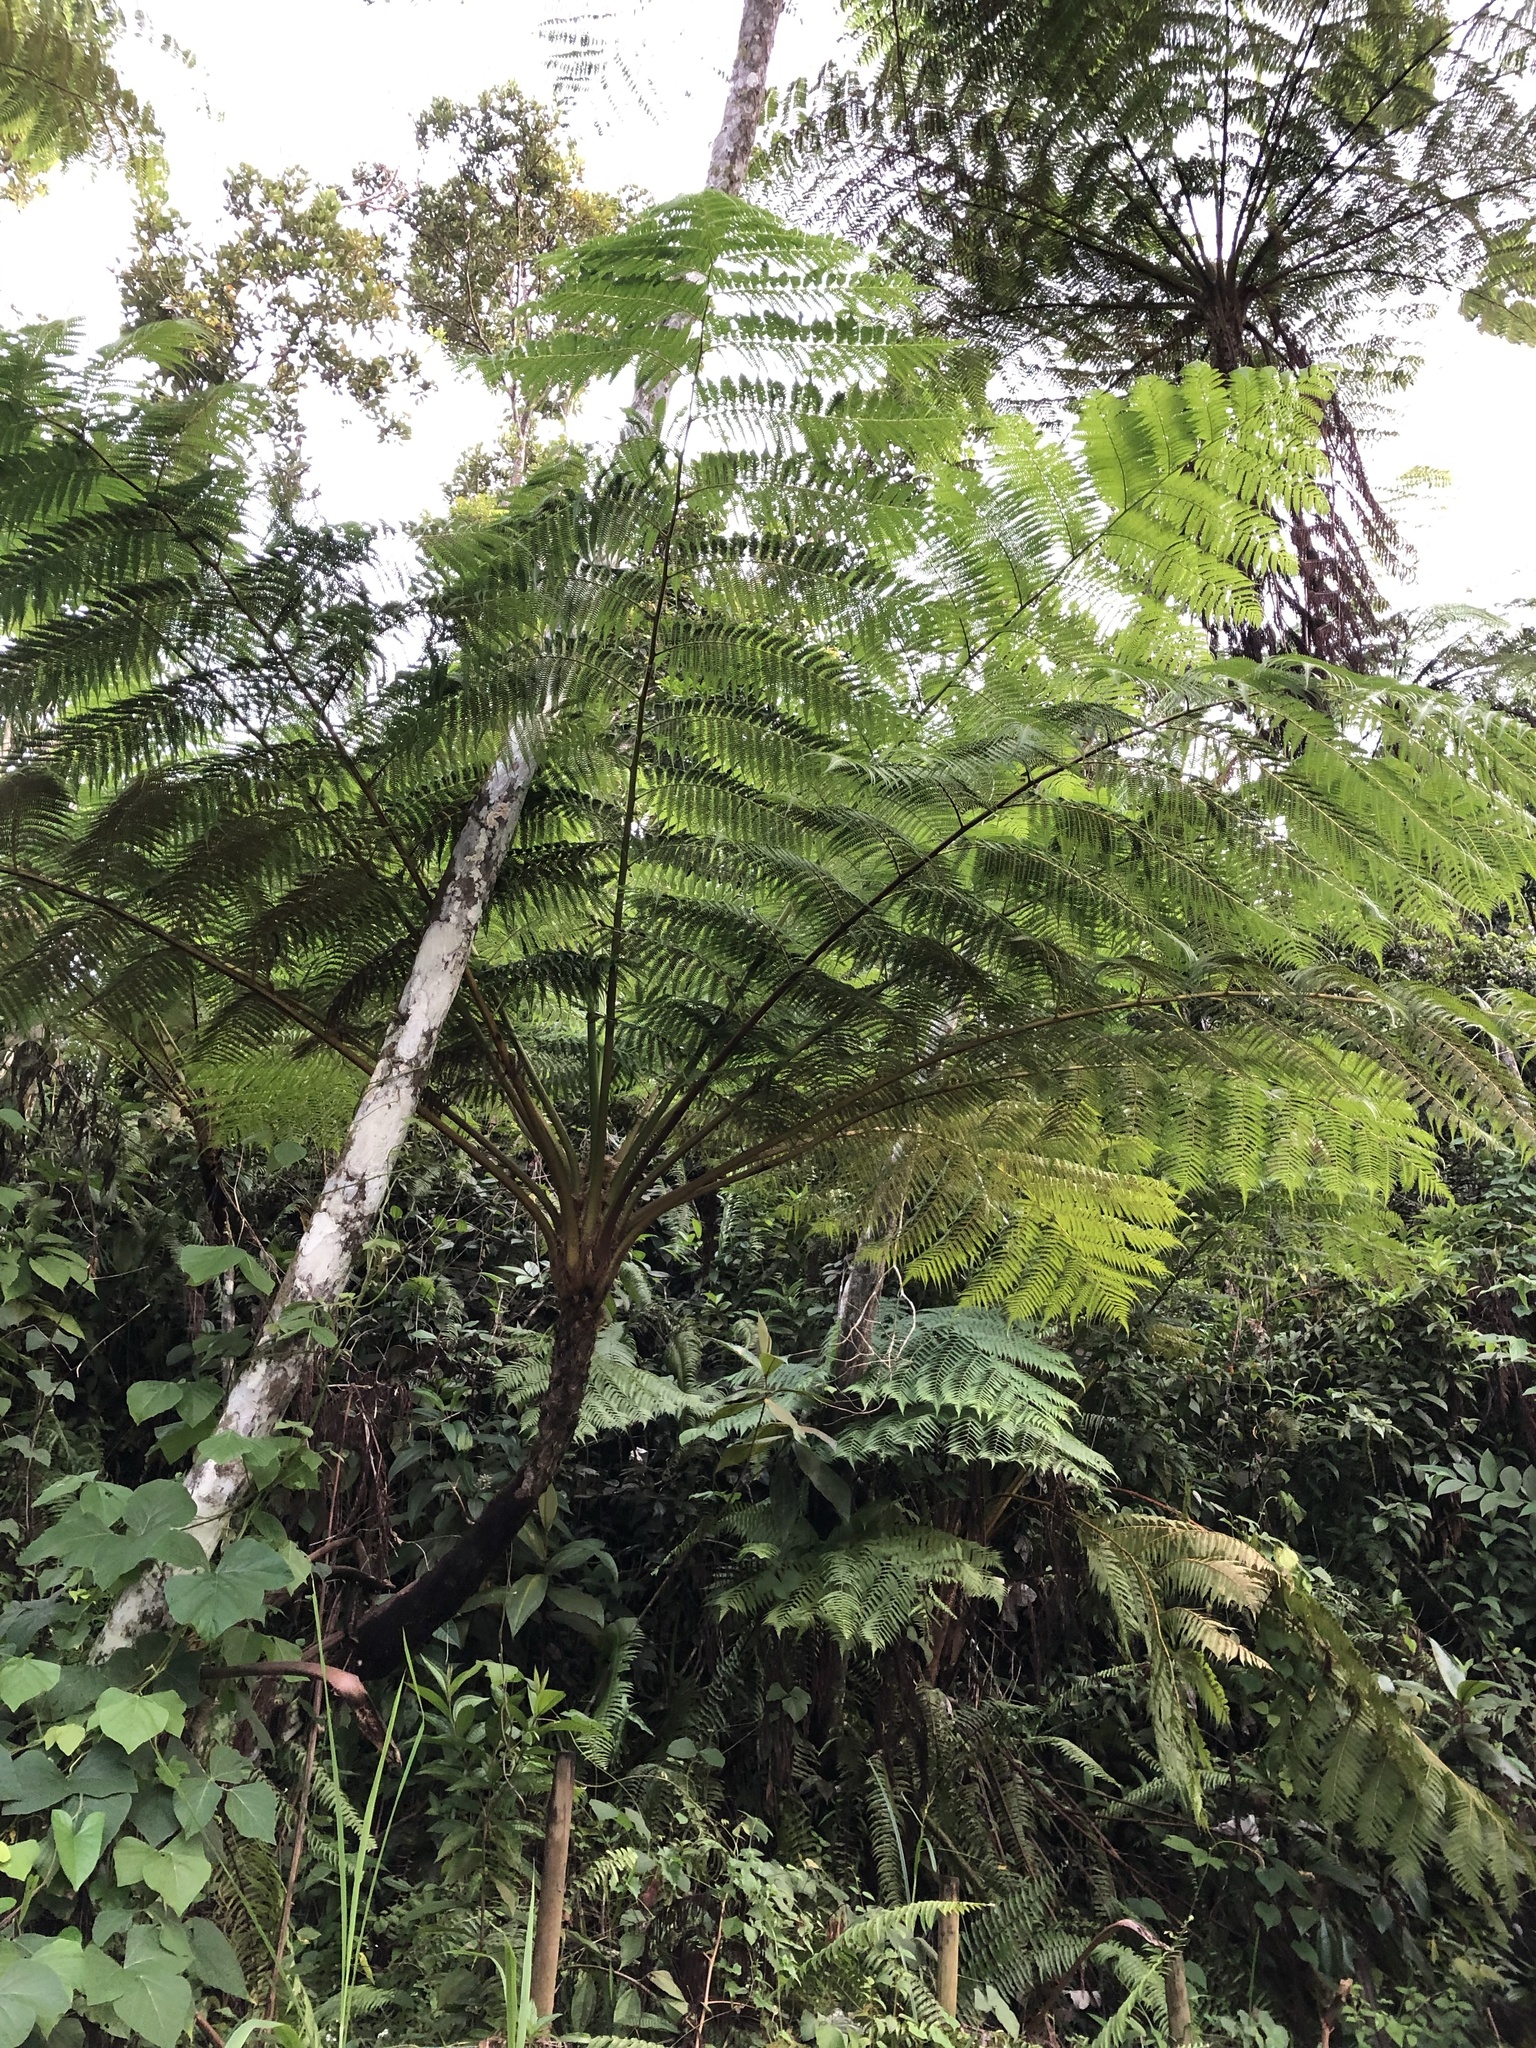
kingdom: Plantae
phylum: Tracheophyta
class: Polypodiopsida
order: Cyatheales
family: Cyatheaceae
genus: Cyathea
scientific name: Cyathea arborea
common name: West indian treefern
